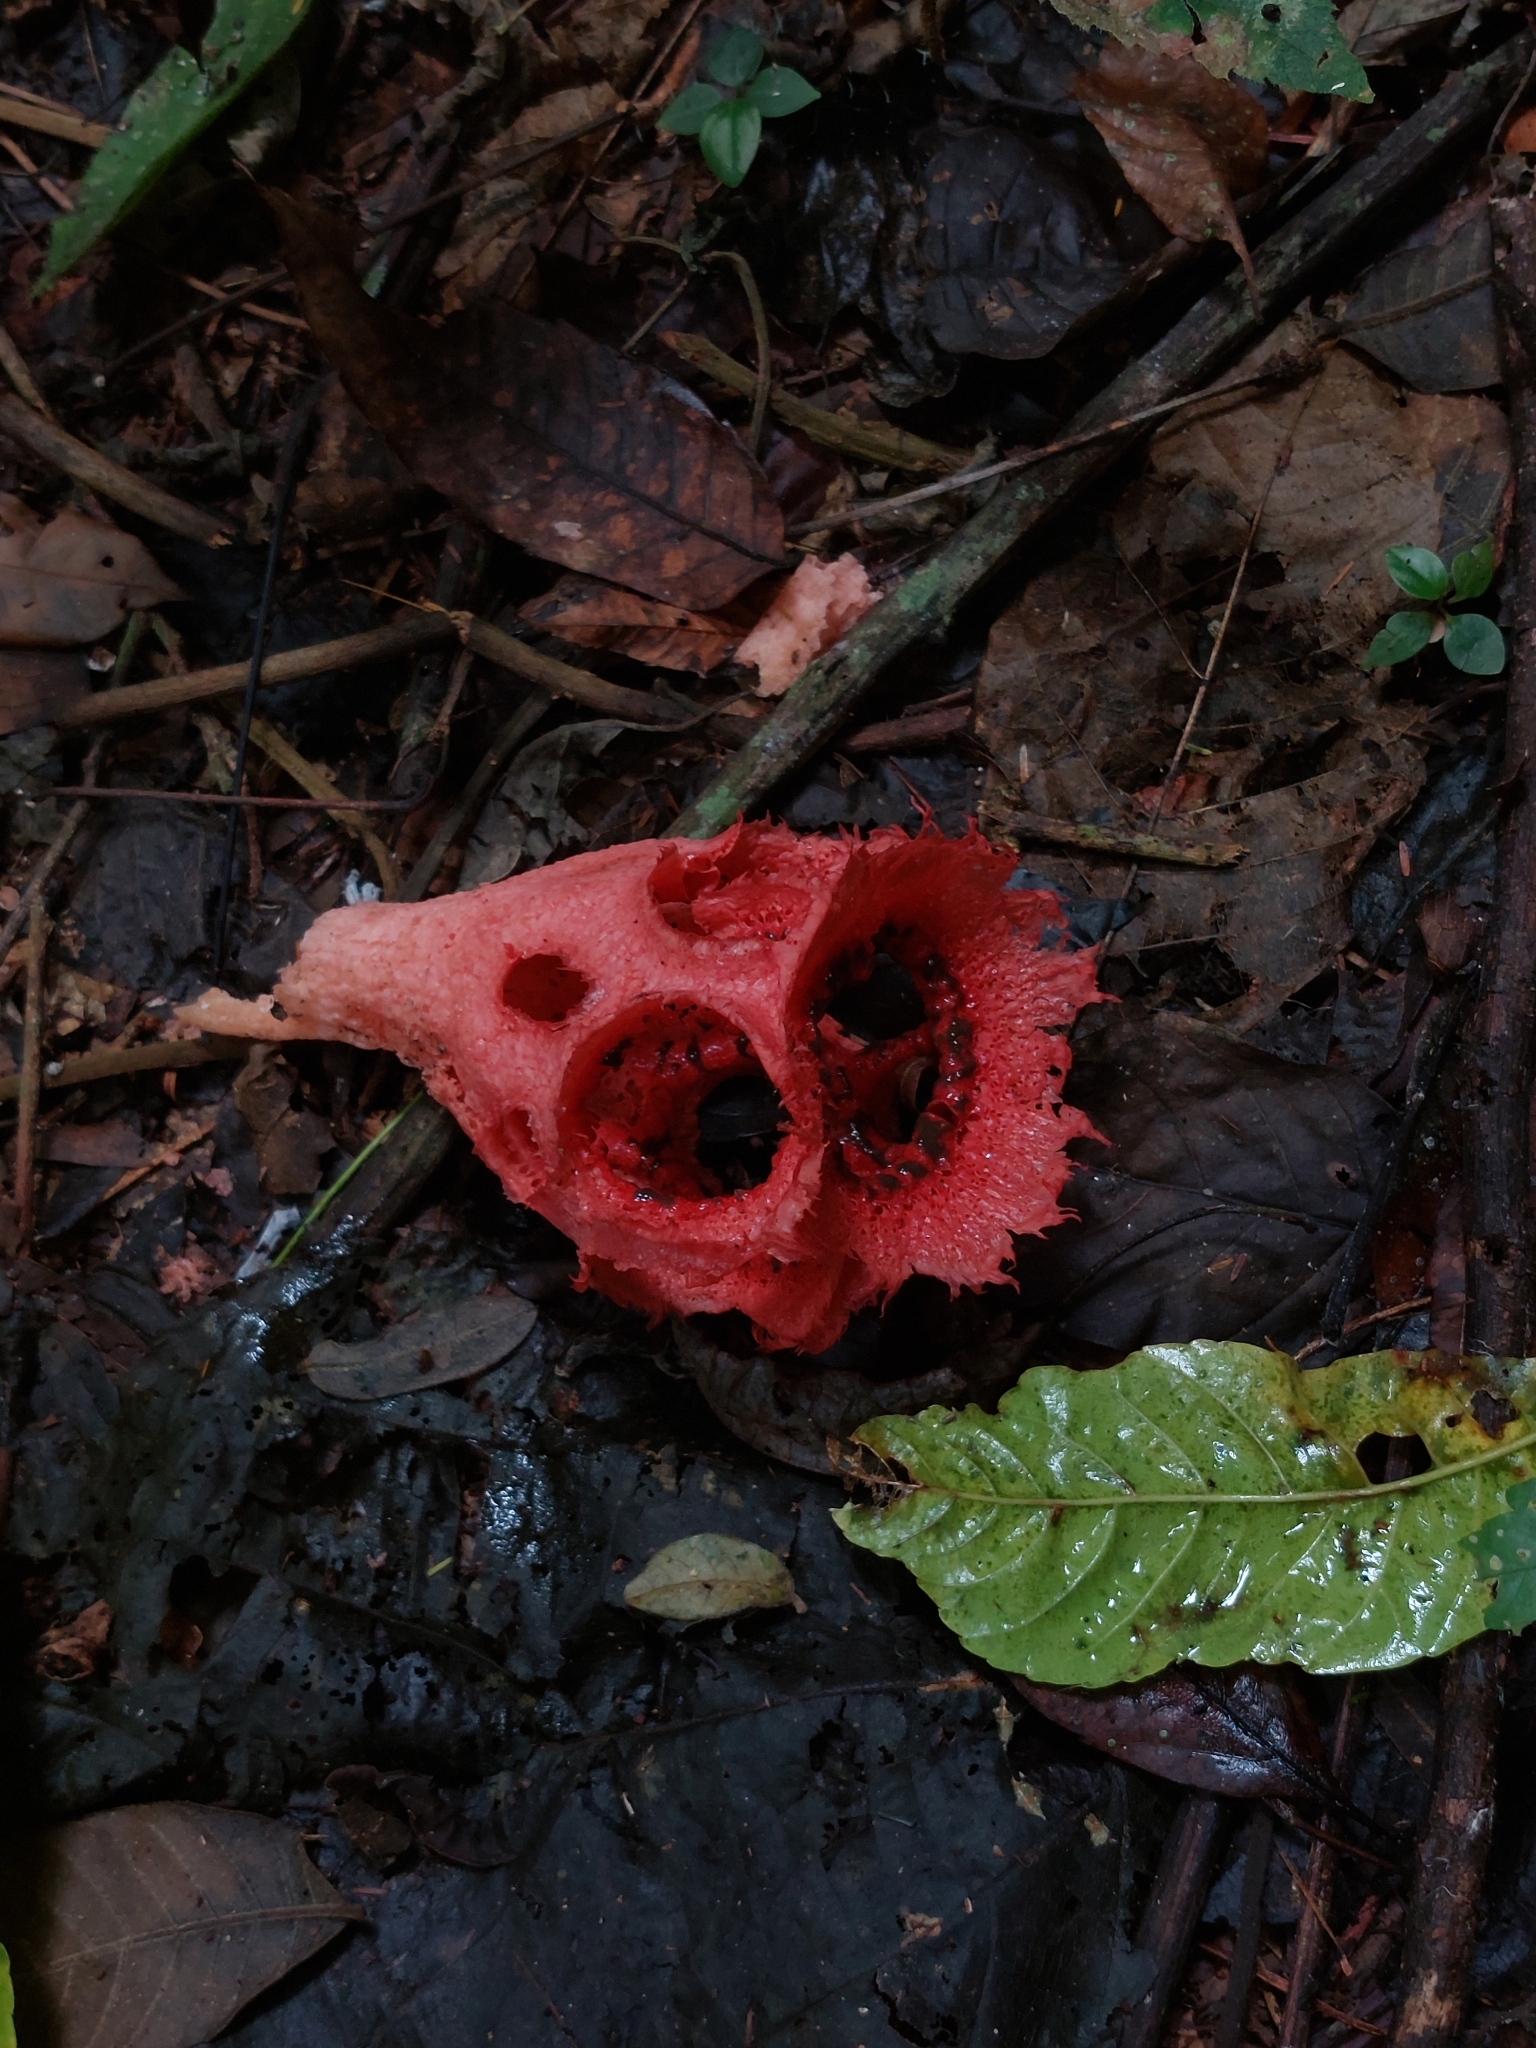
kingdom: Fungi
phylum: Basidiomycota
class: Agaricomycetes
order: Phallales
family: Phallaceae
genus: Clathrus
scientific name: Clathrus cristatus
